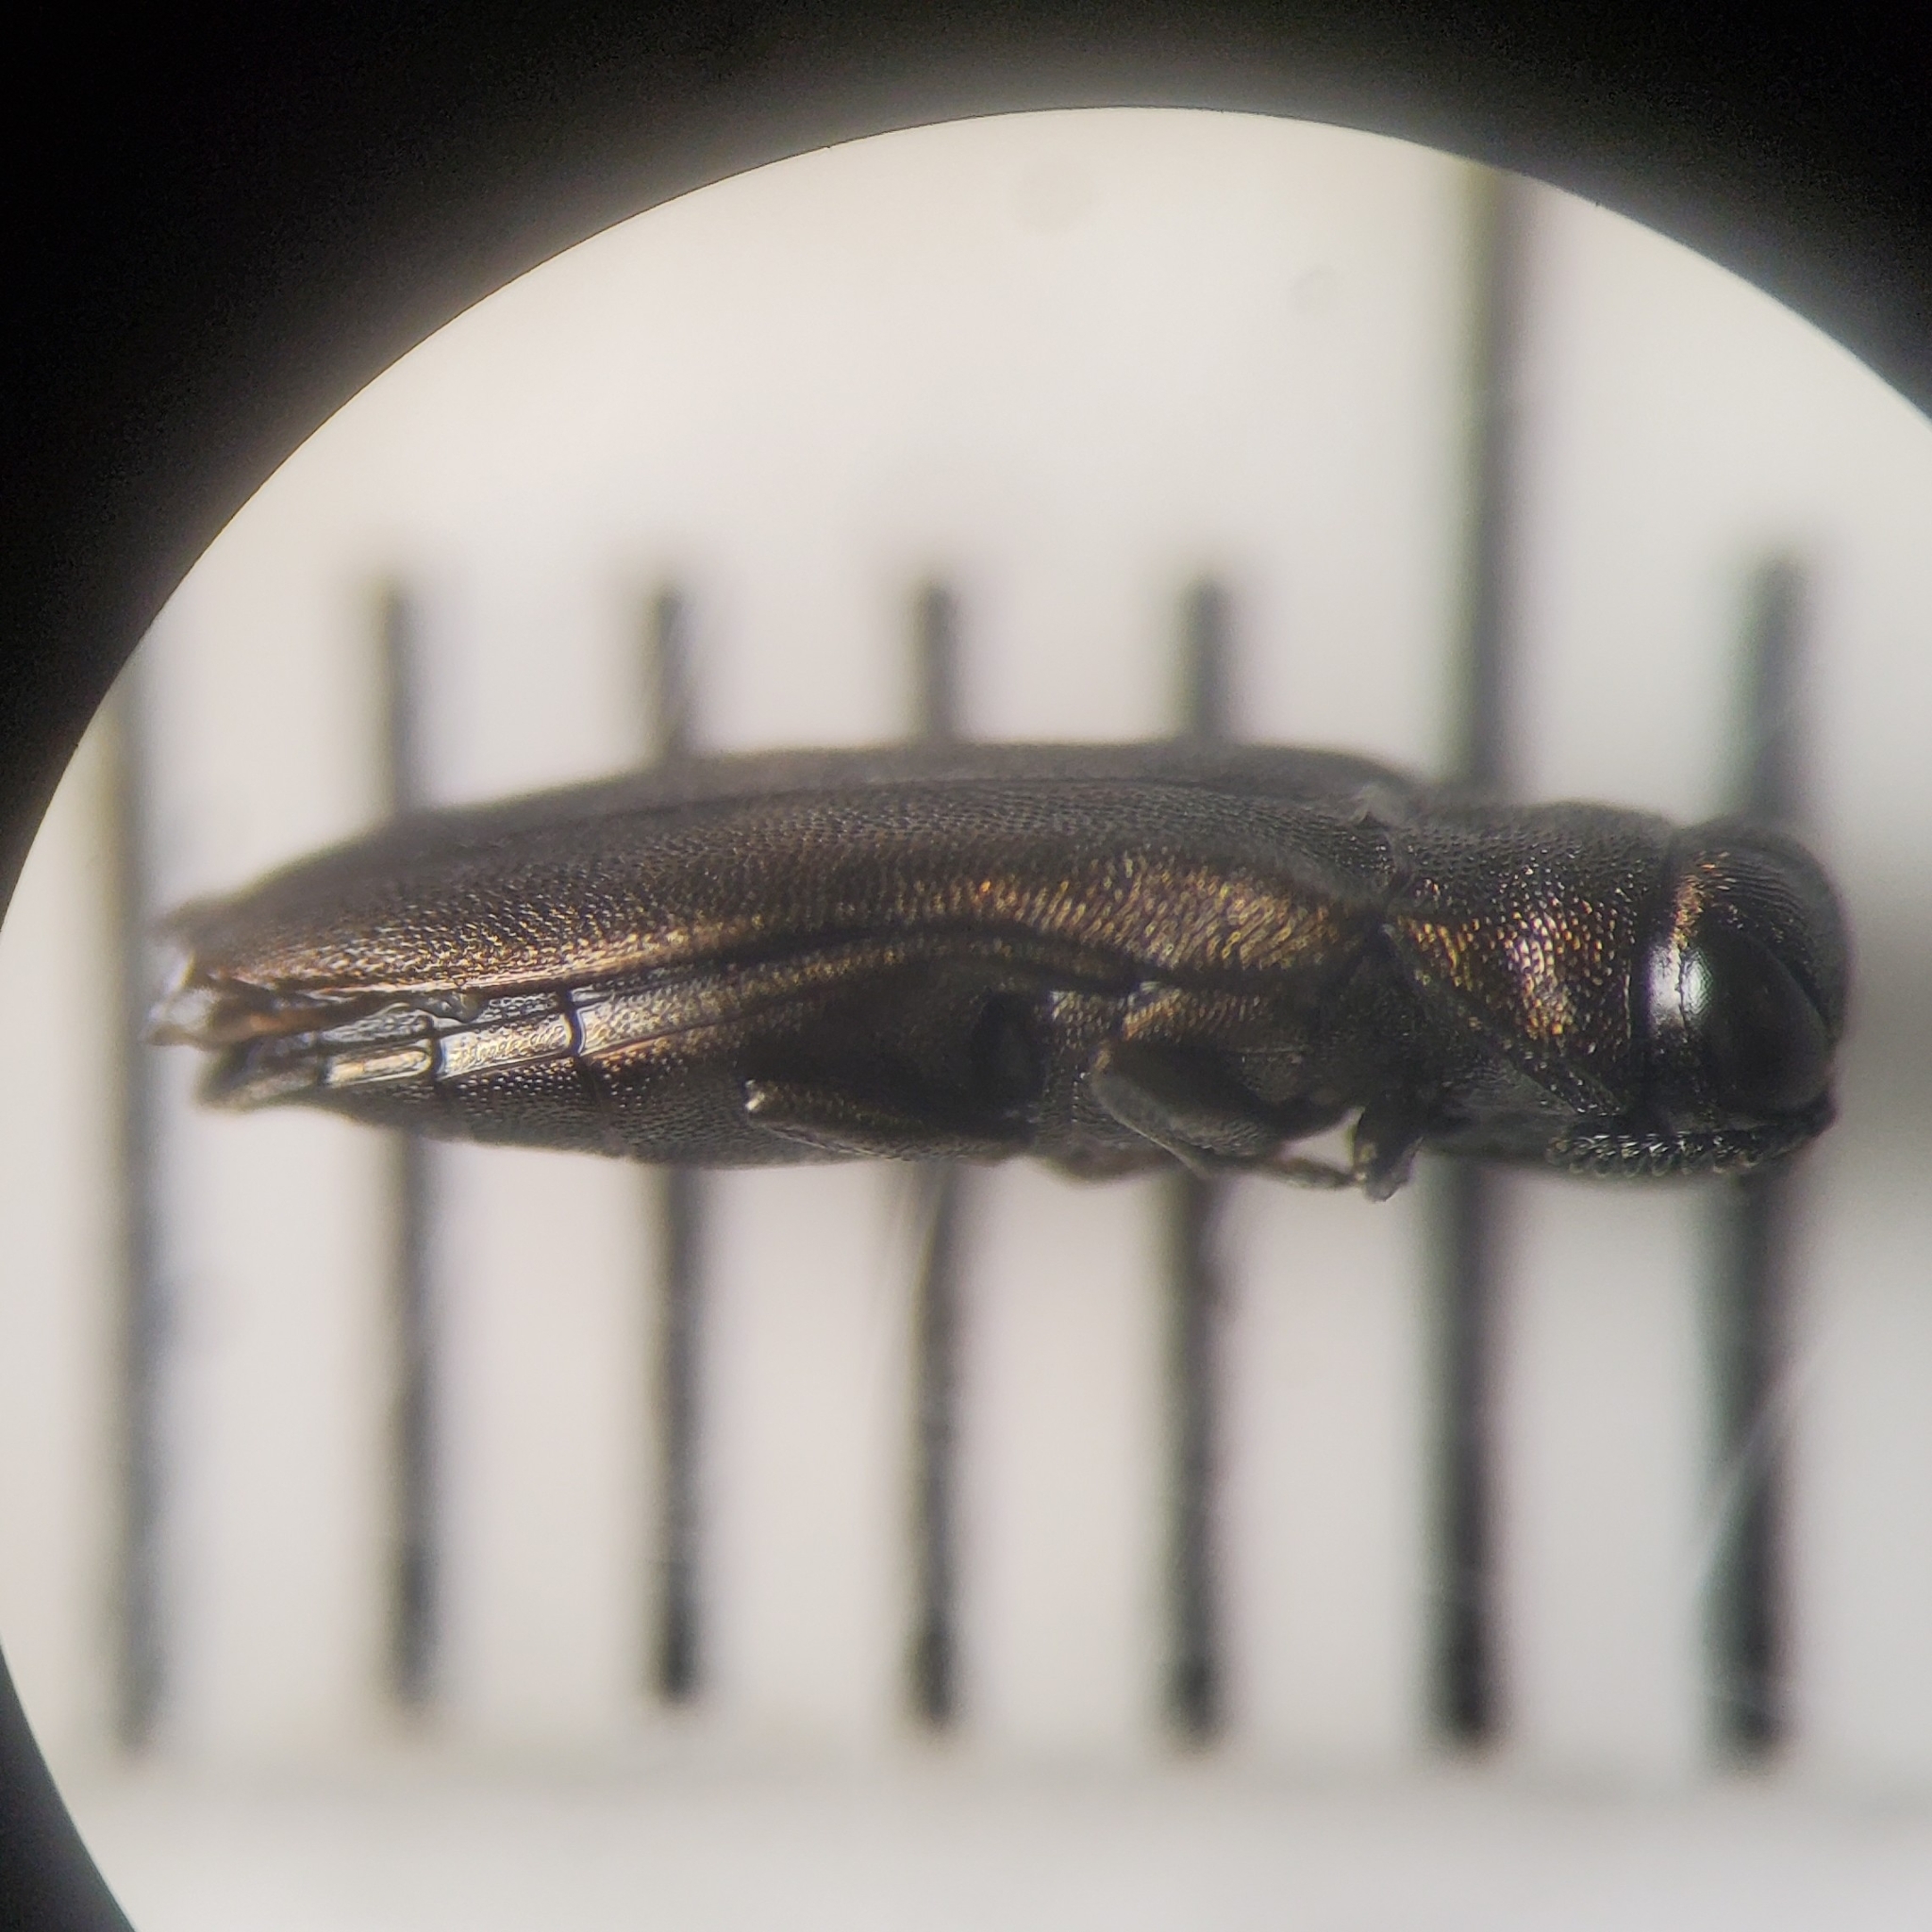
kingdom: Animalia
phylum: Arthropoda
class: Insecta
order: Coleoptera
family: Buprestidae
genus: Agrilus
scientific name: Agrilus cuprescens
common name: Rose stem girdler
